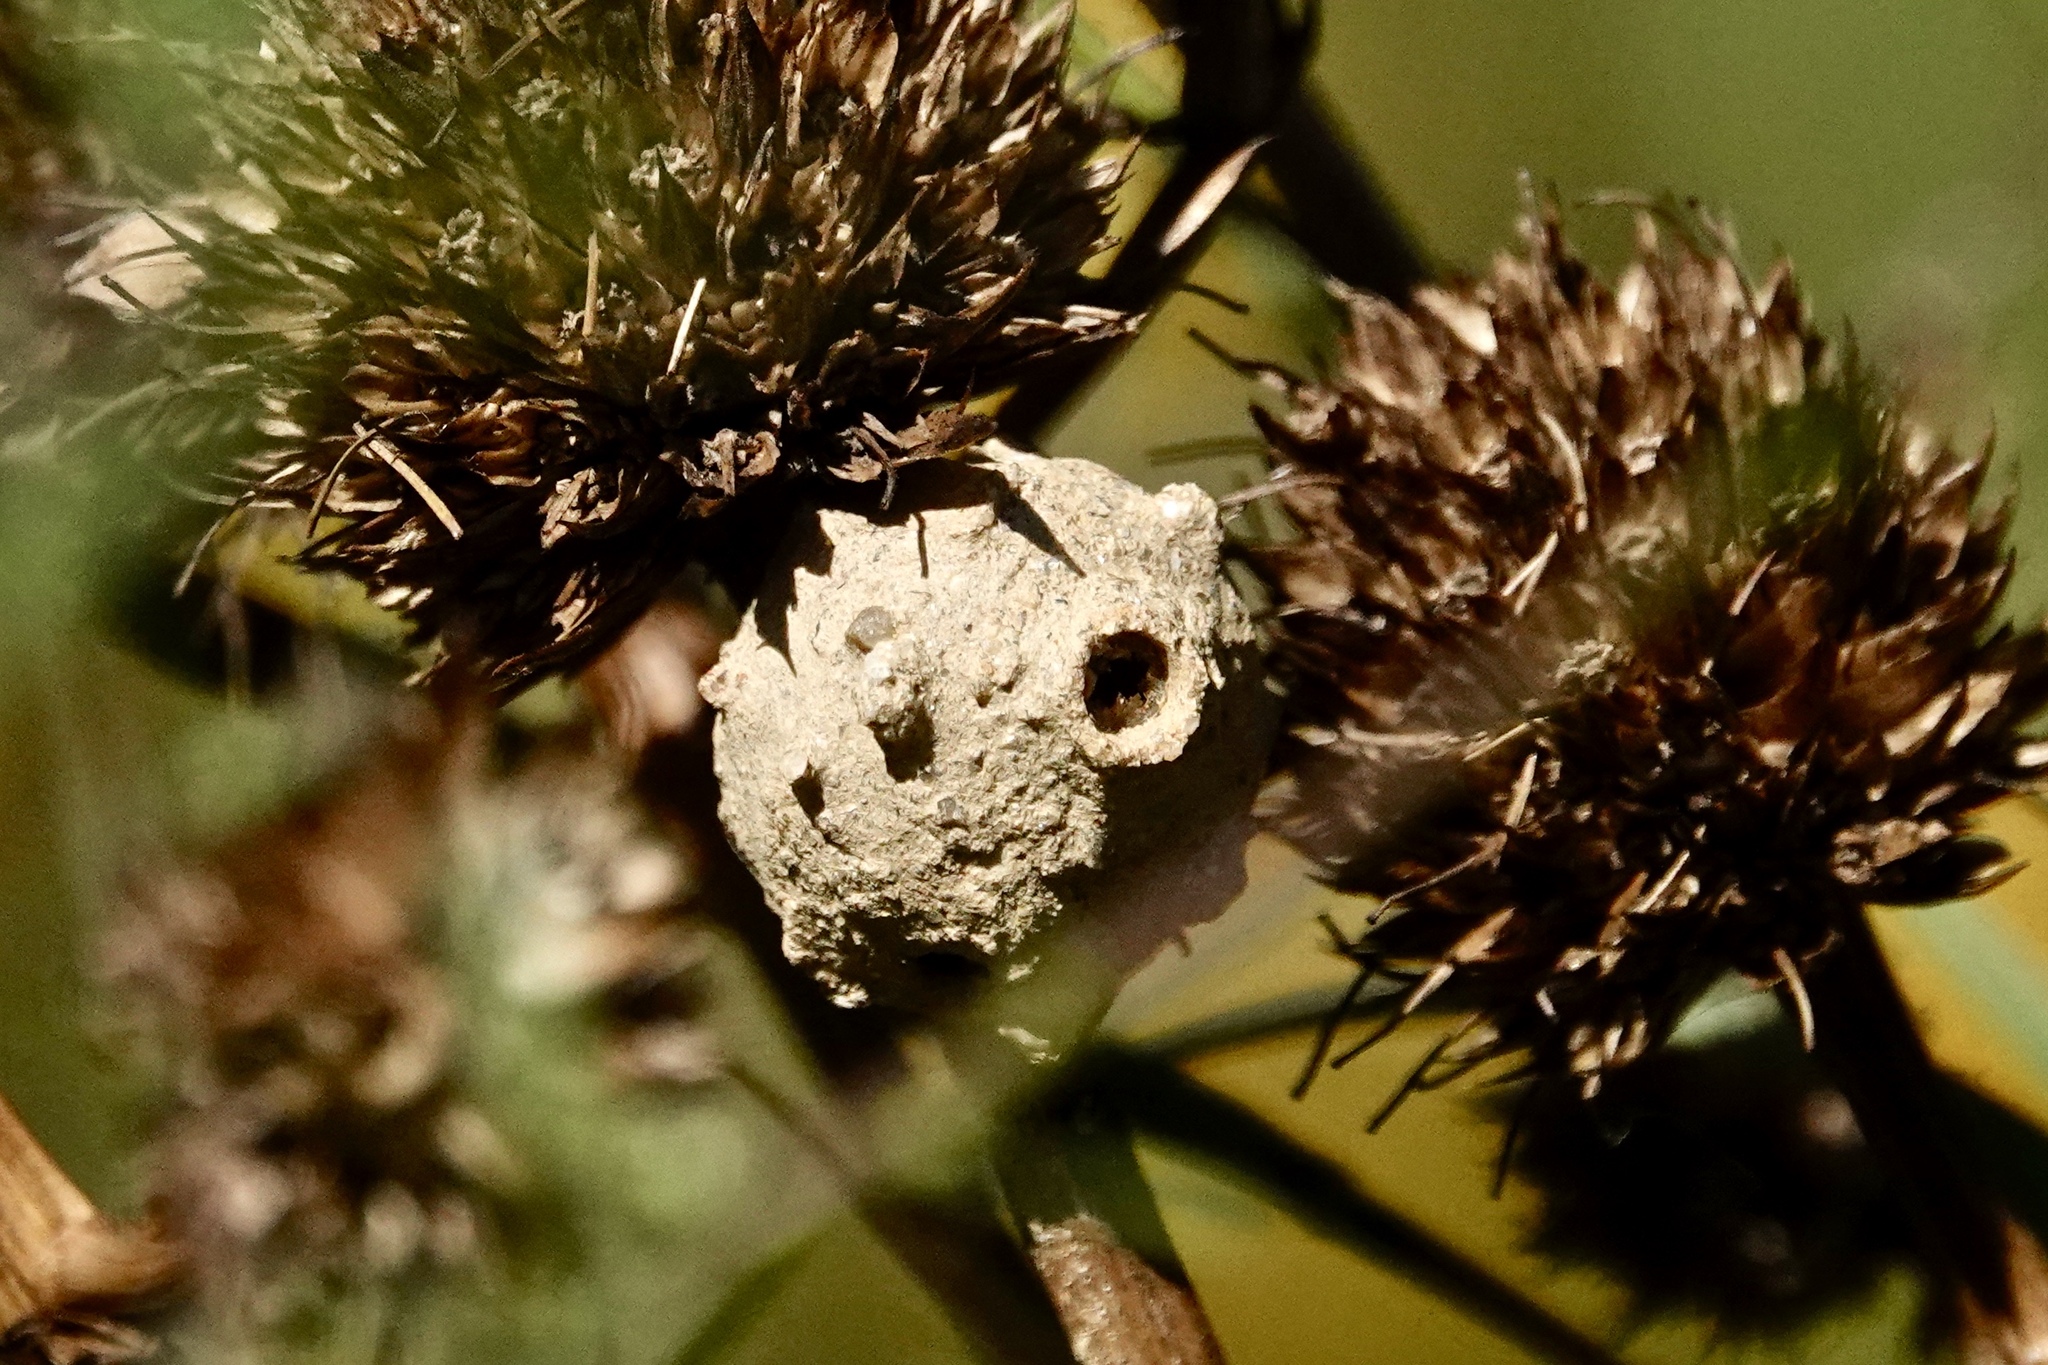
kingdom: Animalia
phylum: Arthropoda
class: Insecta
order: Hymenoptera
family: Vespidae
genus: Eumenes
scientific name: Eumenes
